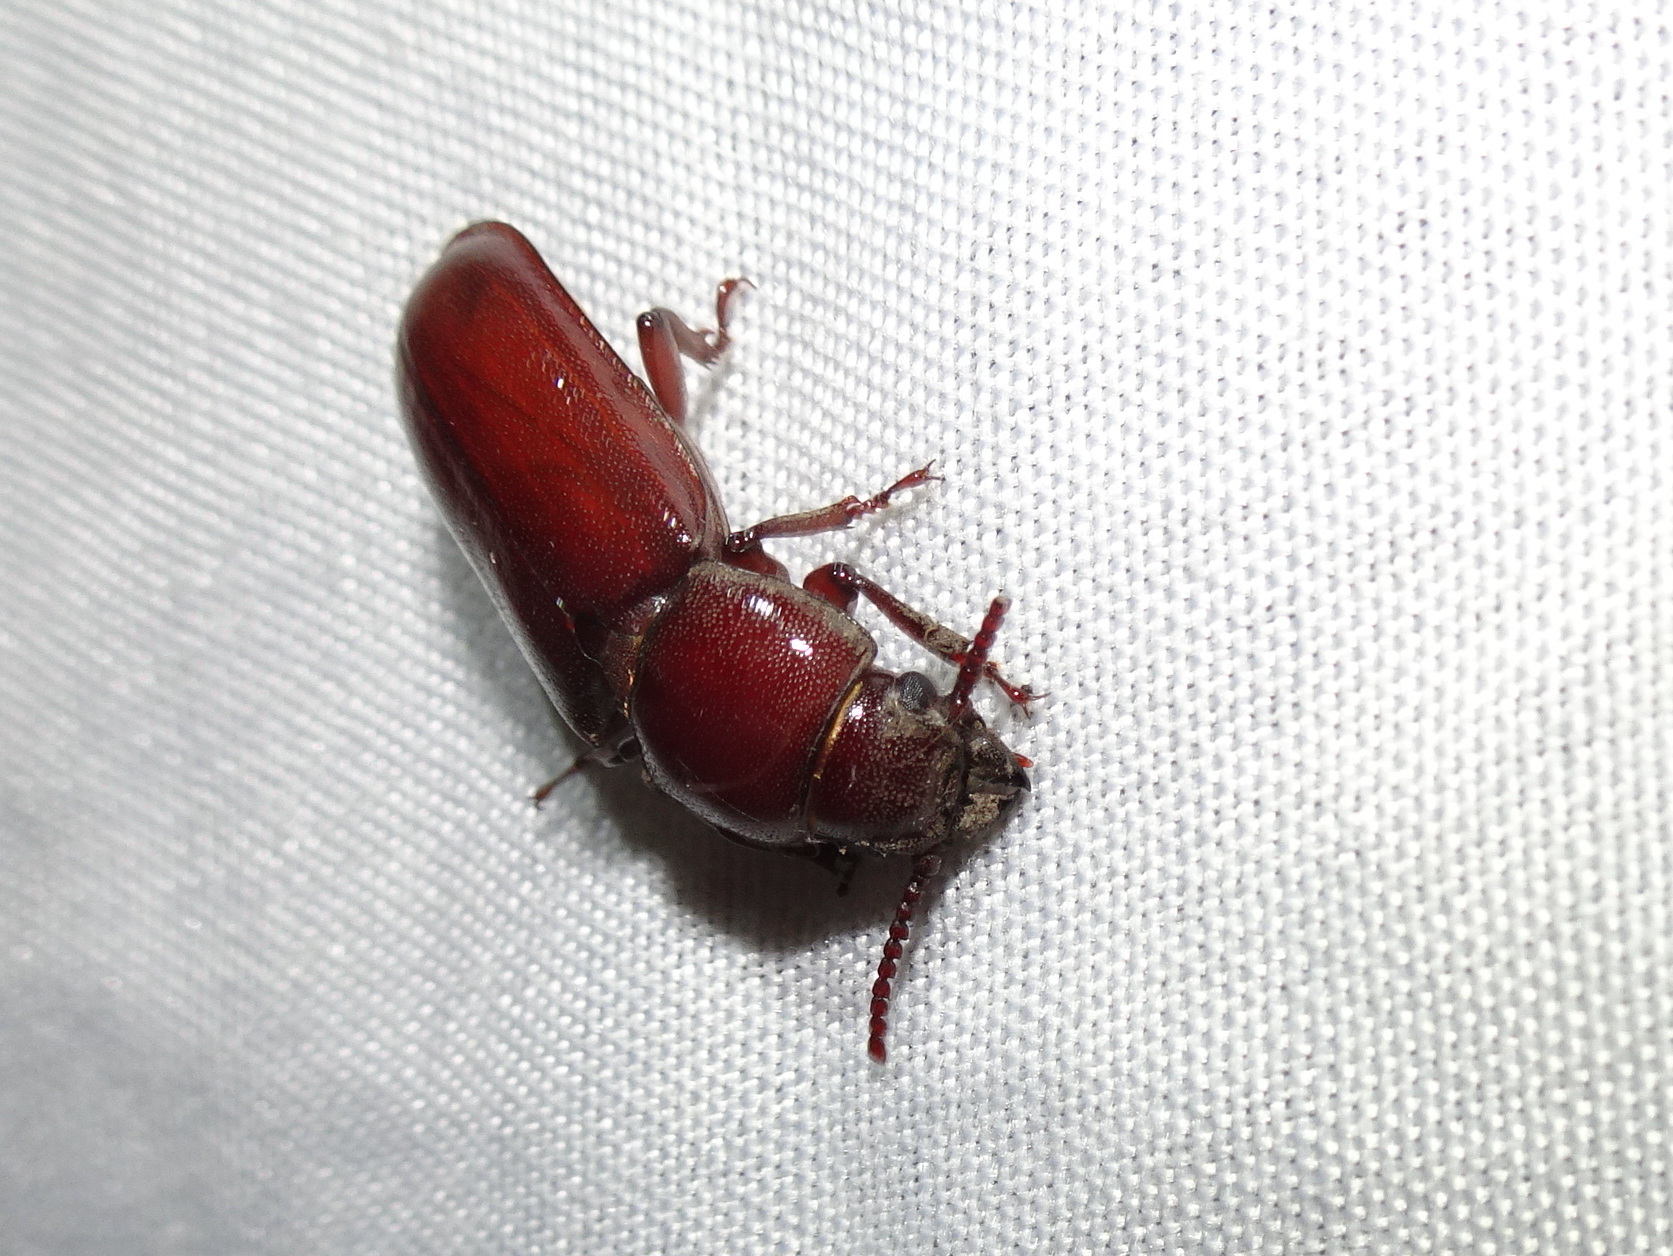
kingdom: Animalia
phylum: Arthropoda
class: Insecta
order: Coleoptera
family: Cerambycidae
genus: Neandra
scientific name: Neandra brunnea
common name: Pole borer
